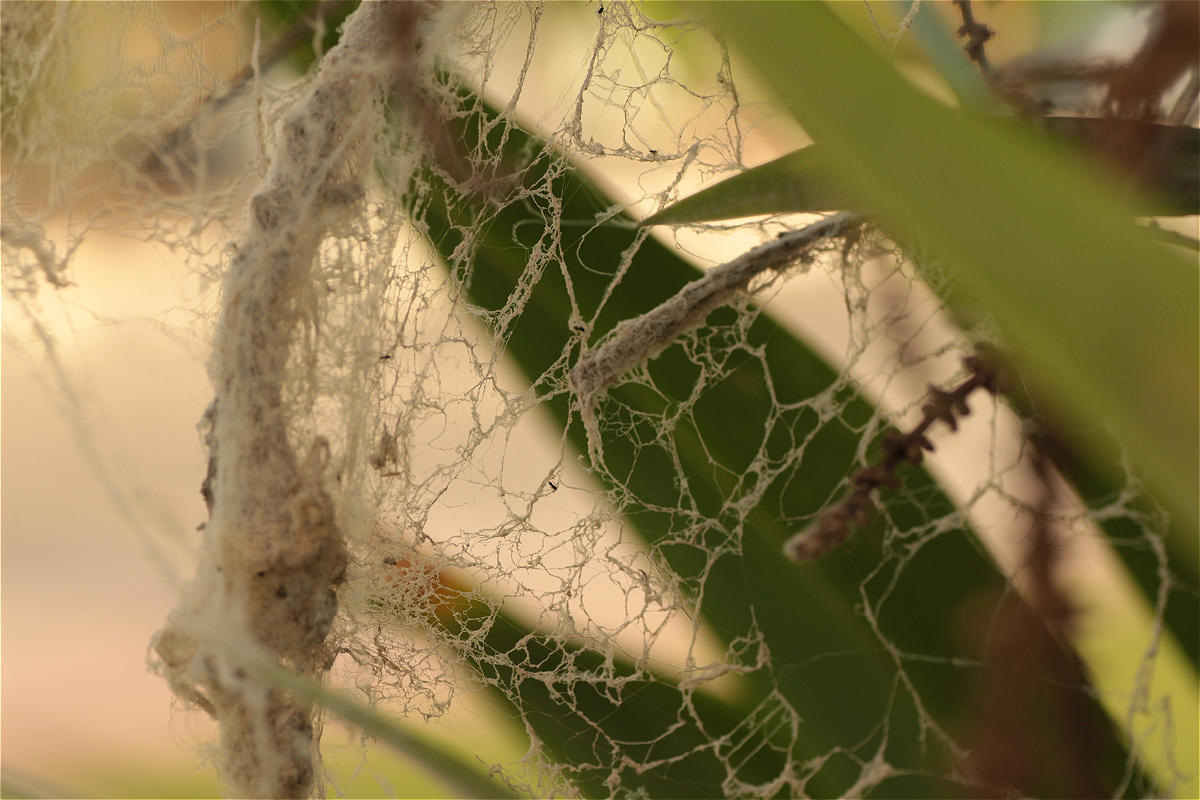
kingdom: Animalia
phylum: Arthropoda
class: Arachnida
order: Araneae
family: Eresidae
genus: Stegodyphus
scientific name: Stegodyphus dufouri
